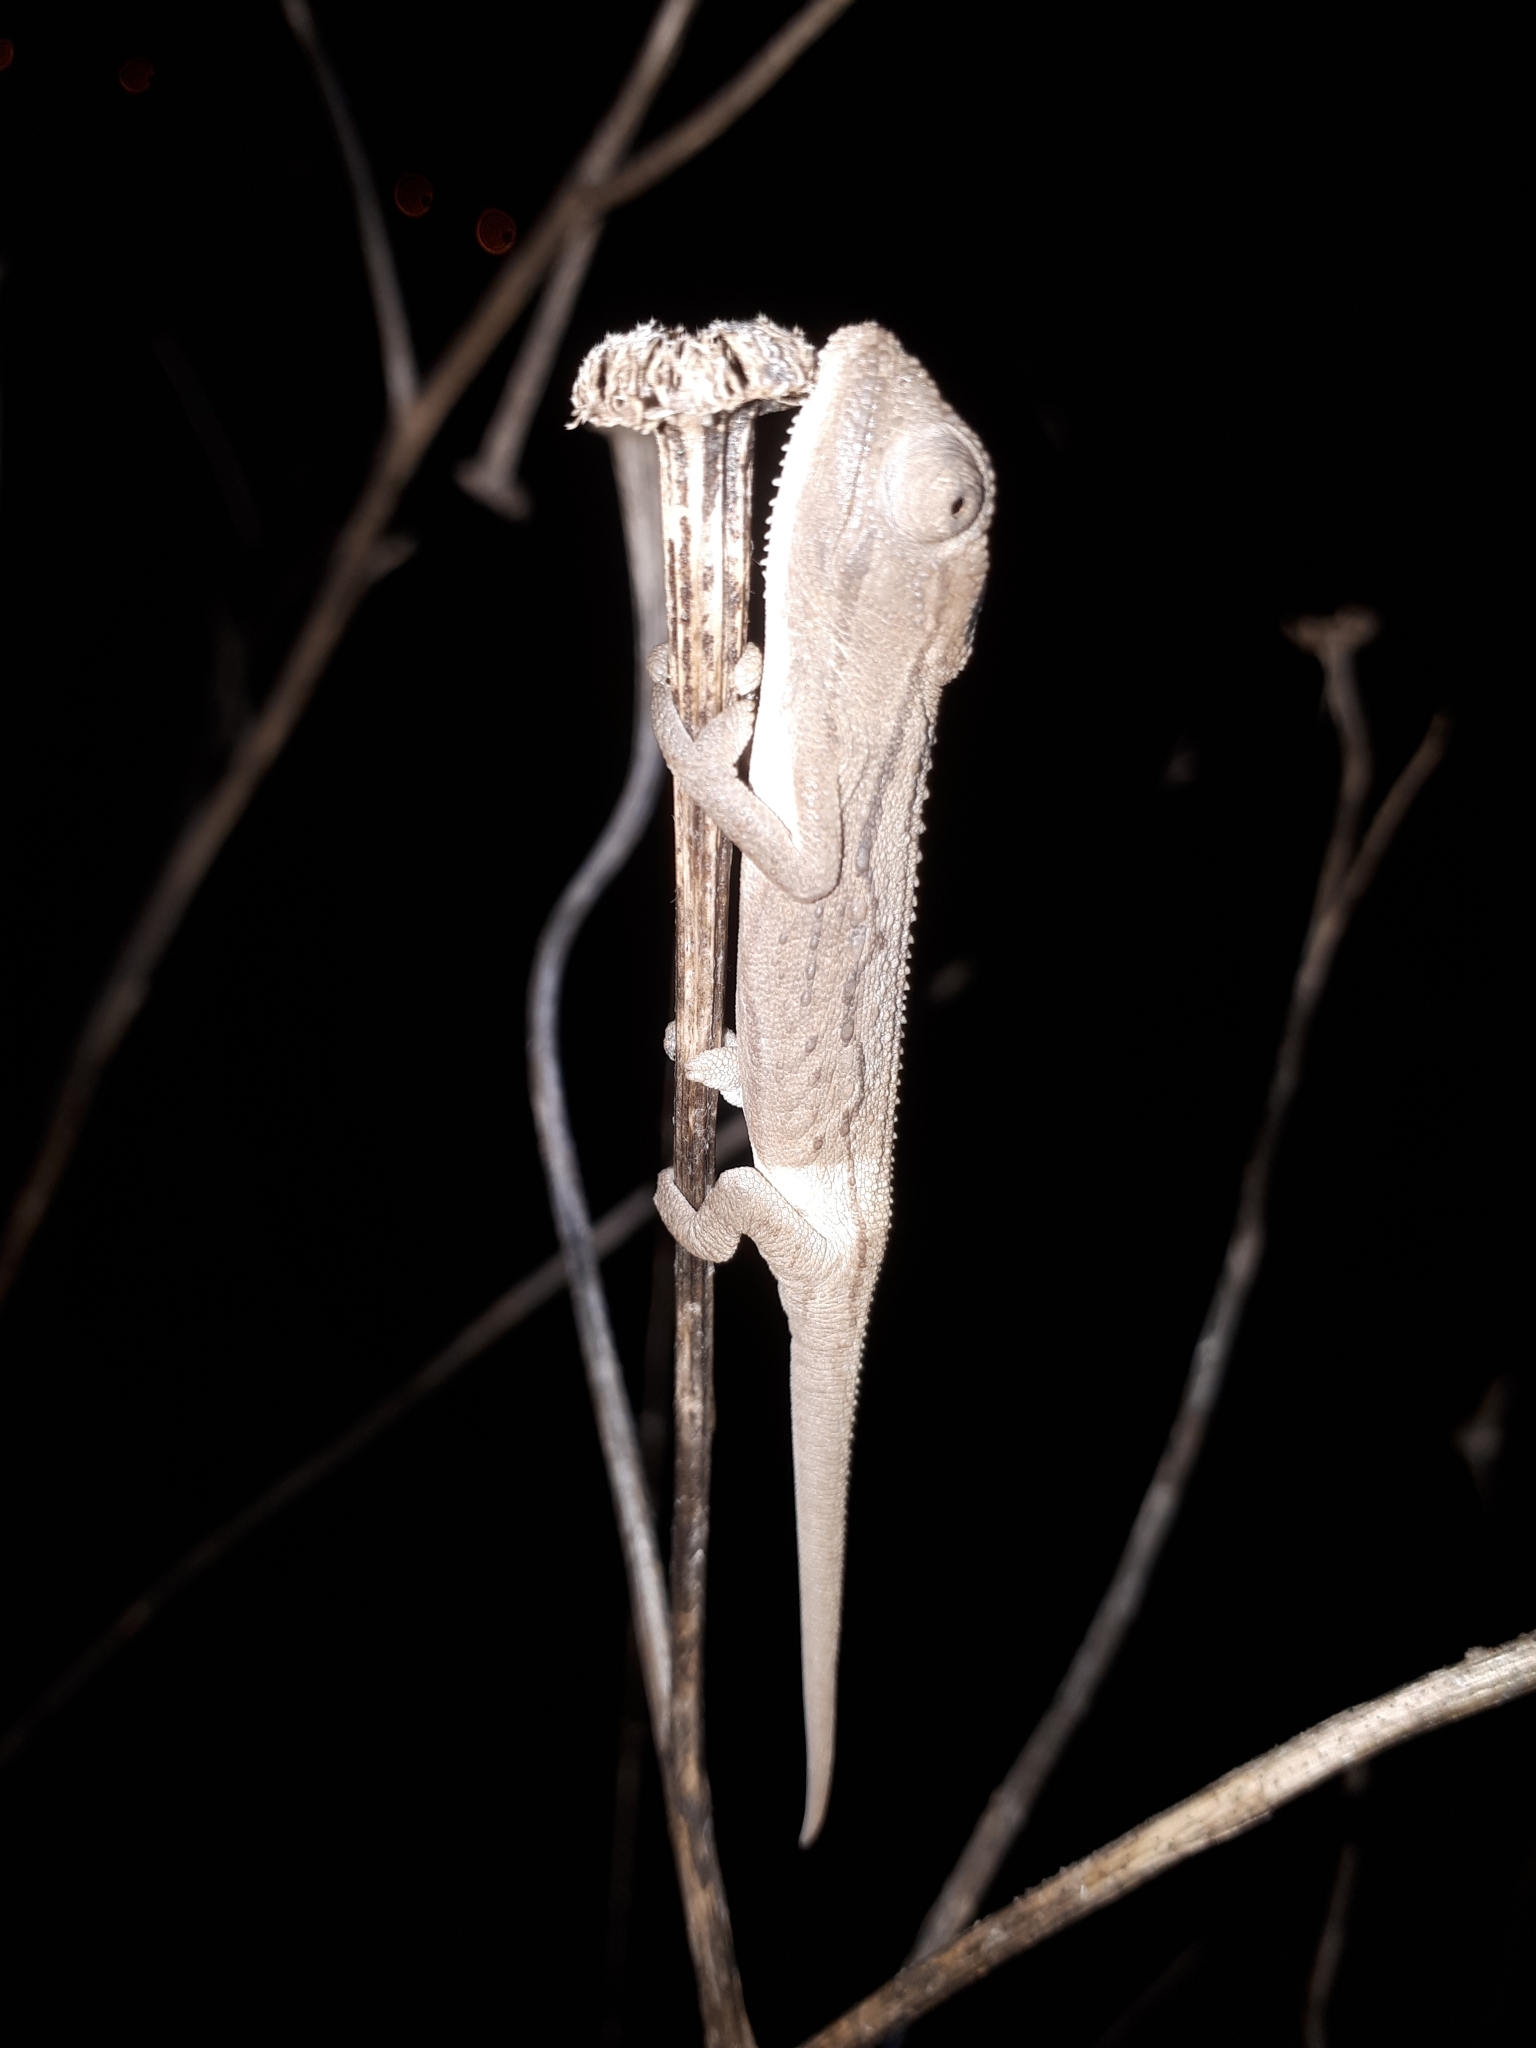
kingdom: Animalia
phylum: Chordata
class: Squamata
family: Chamaeleonidae
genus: Bradypodion
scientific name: Bradypodion pumilum
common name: Cape dwarf chameleon
